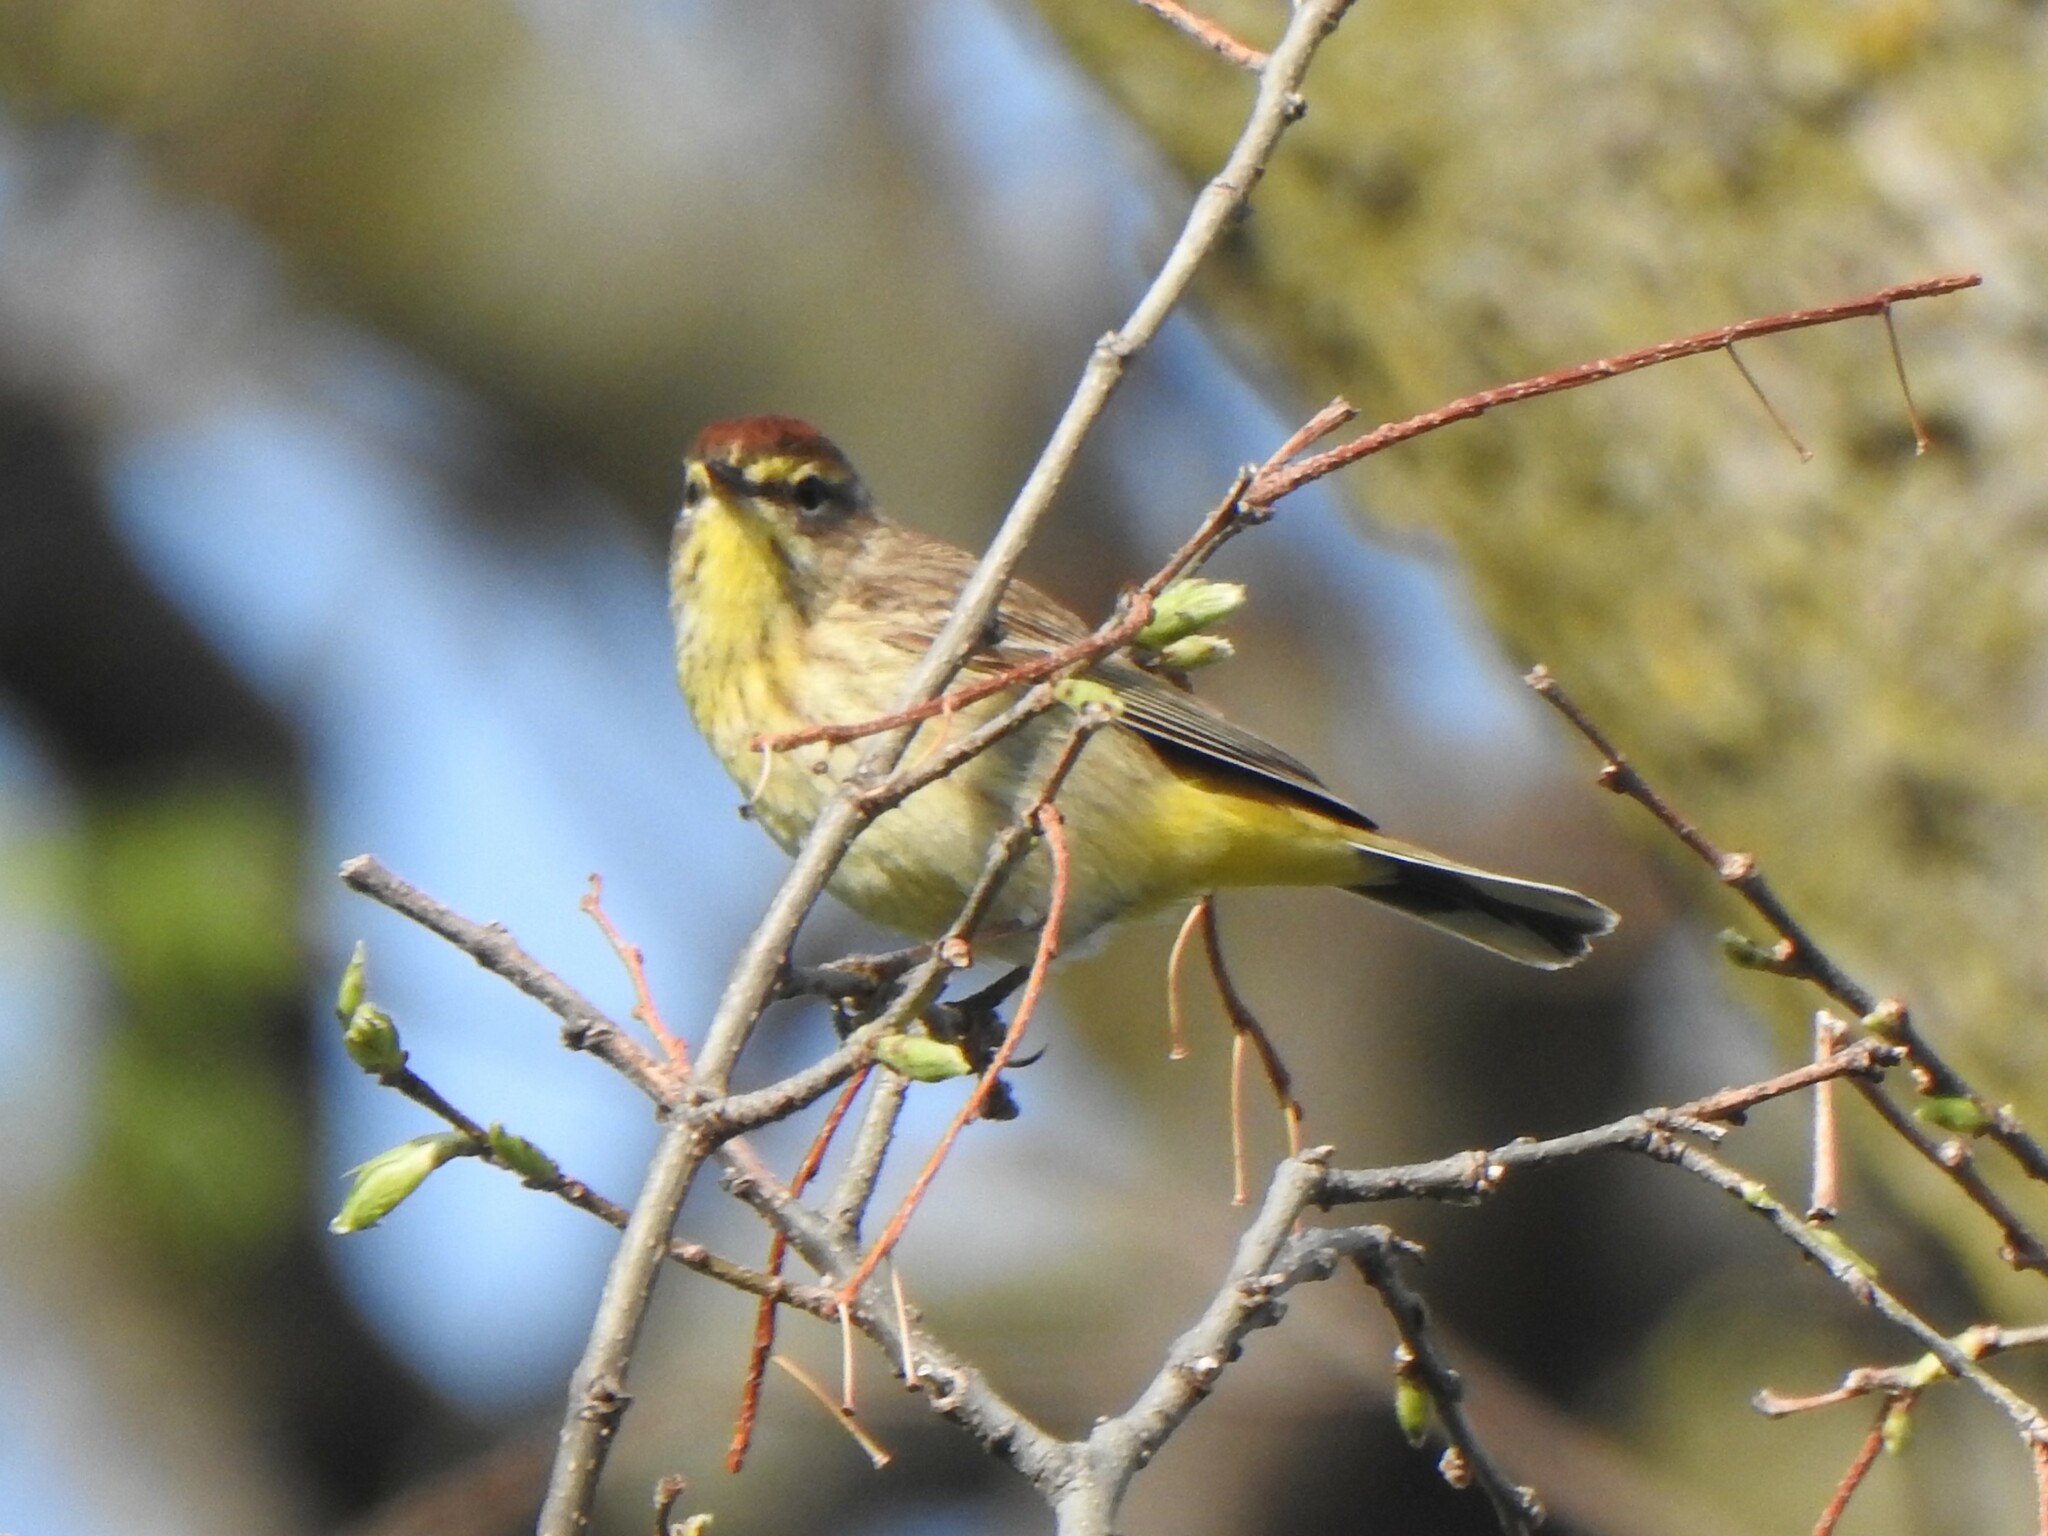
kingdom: Animalia
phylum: Chordata
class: Aves
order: Passeriformes
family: Parulidae
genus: Setophaga
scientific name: Setophaga palmarum
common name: Palm warbler
